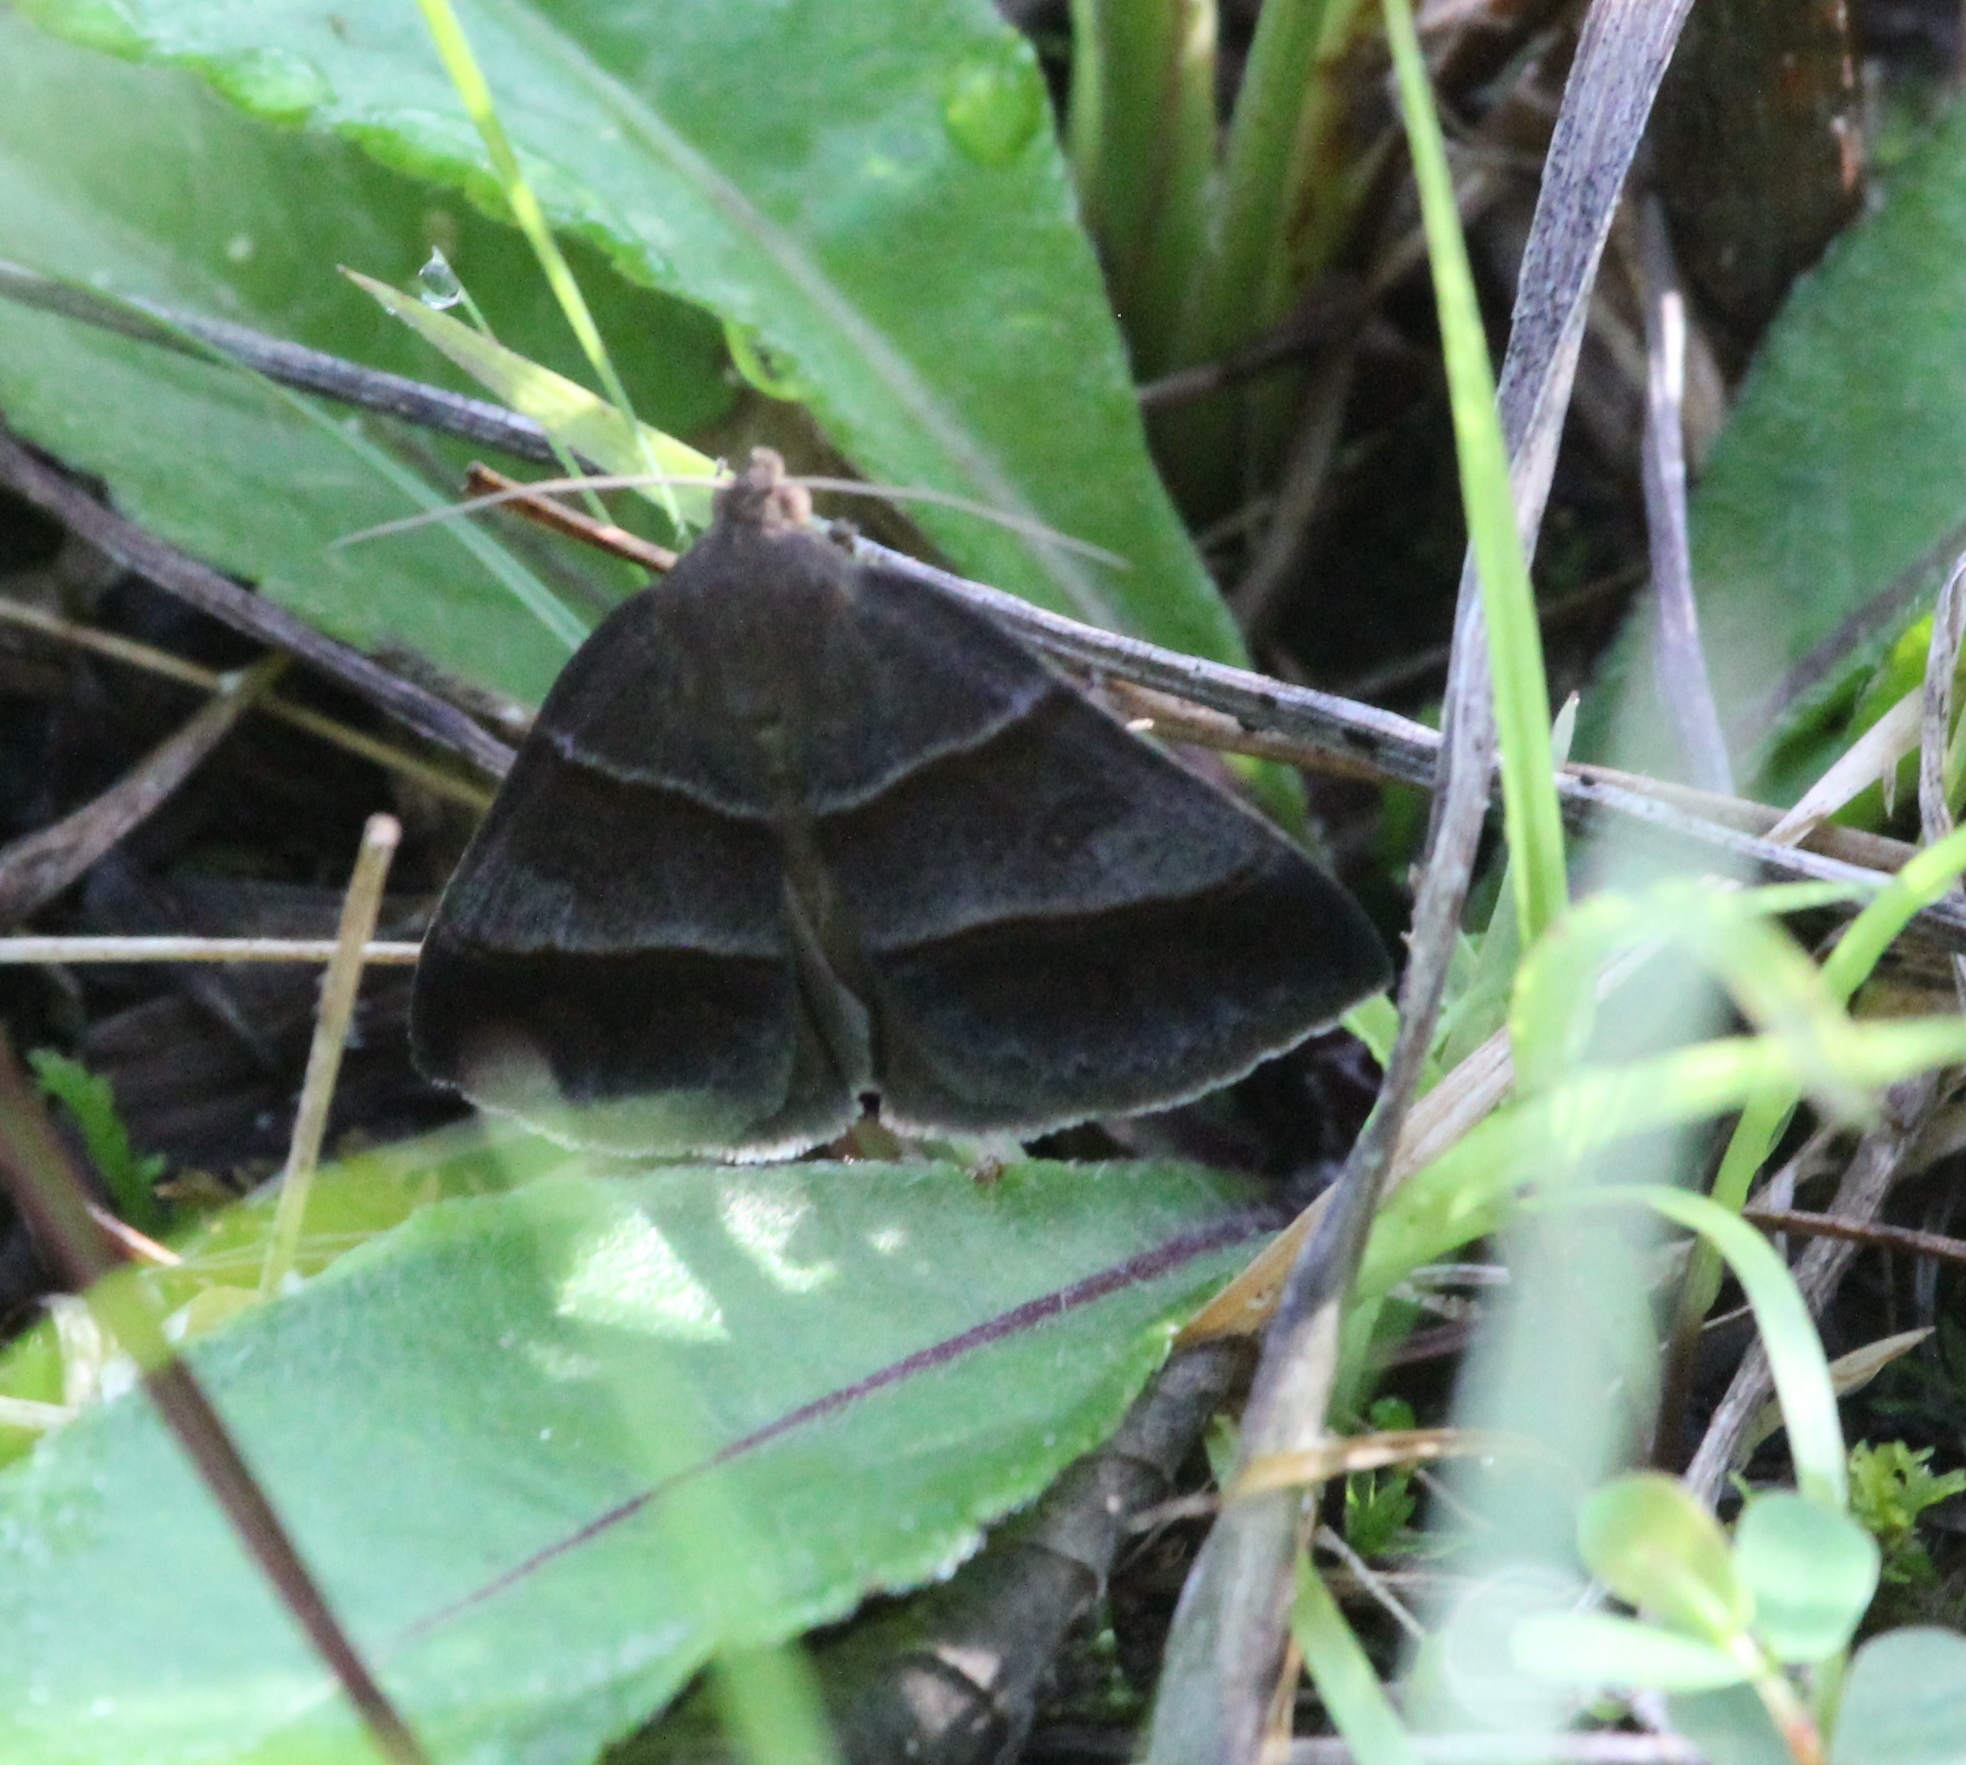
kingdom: Animalia
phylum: Arthropoda
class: Insecta
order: Lepidoptera
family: Erebidae
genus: Argyrostrotis
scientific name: Argyrostrotis sylvarum
